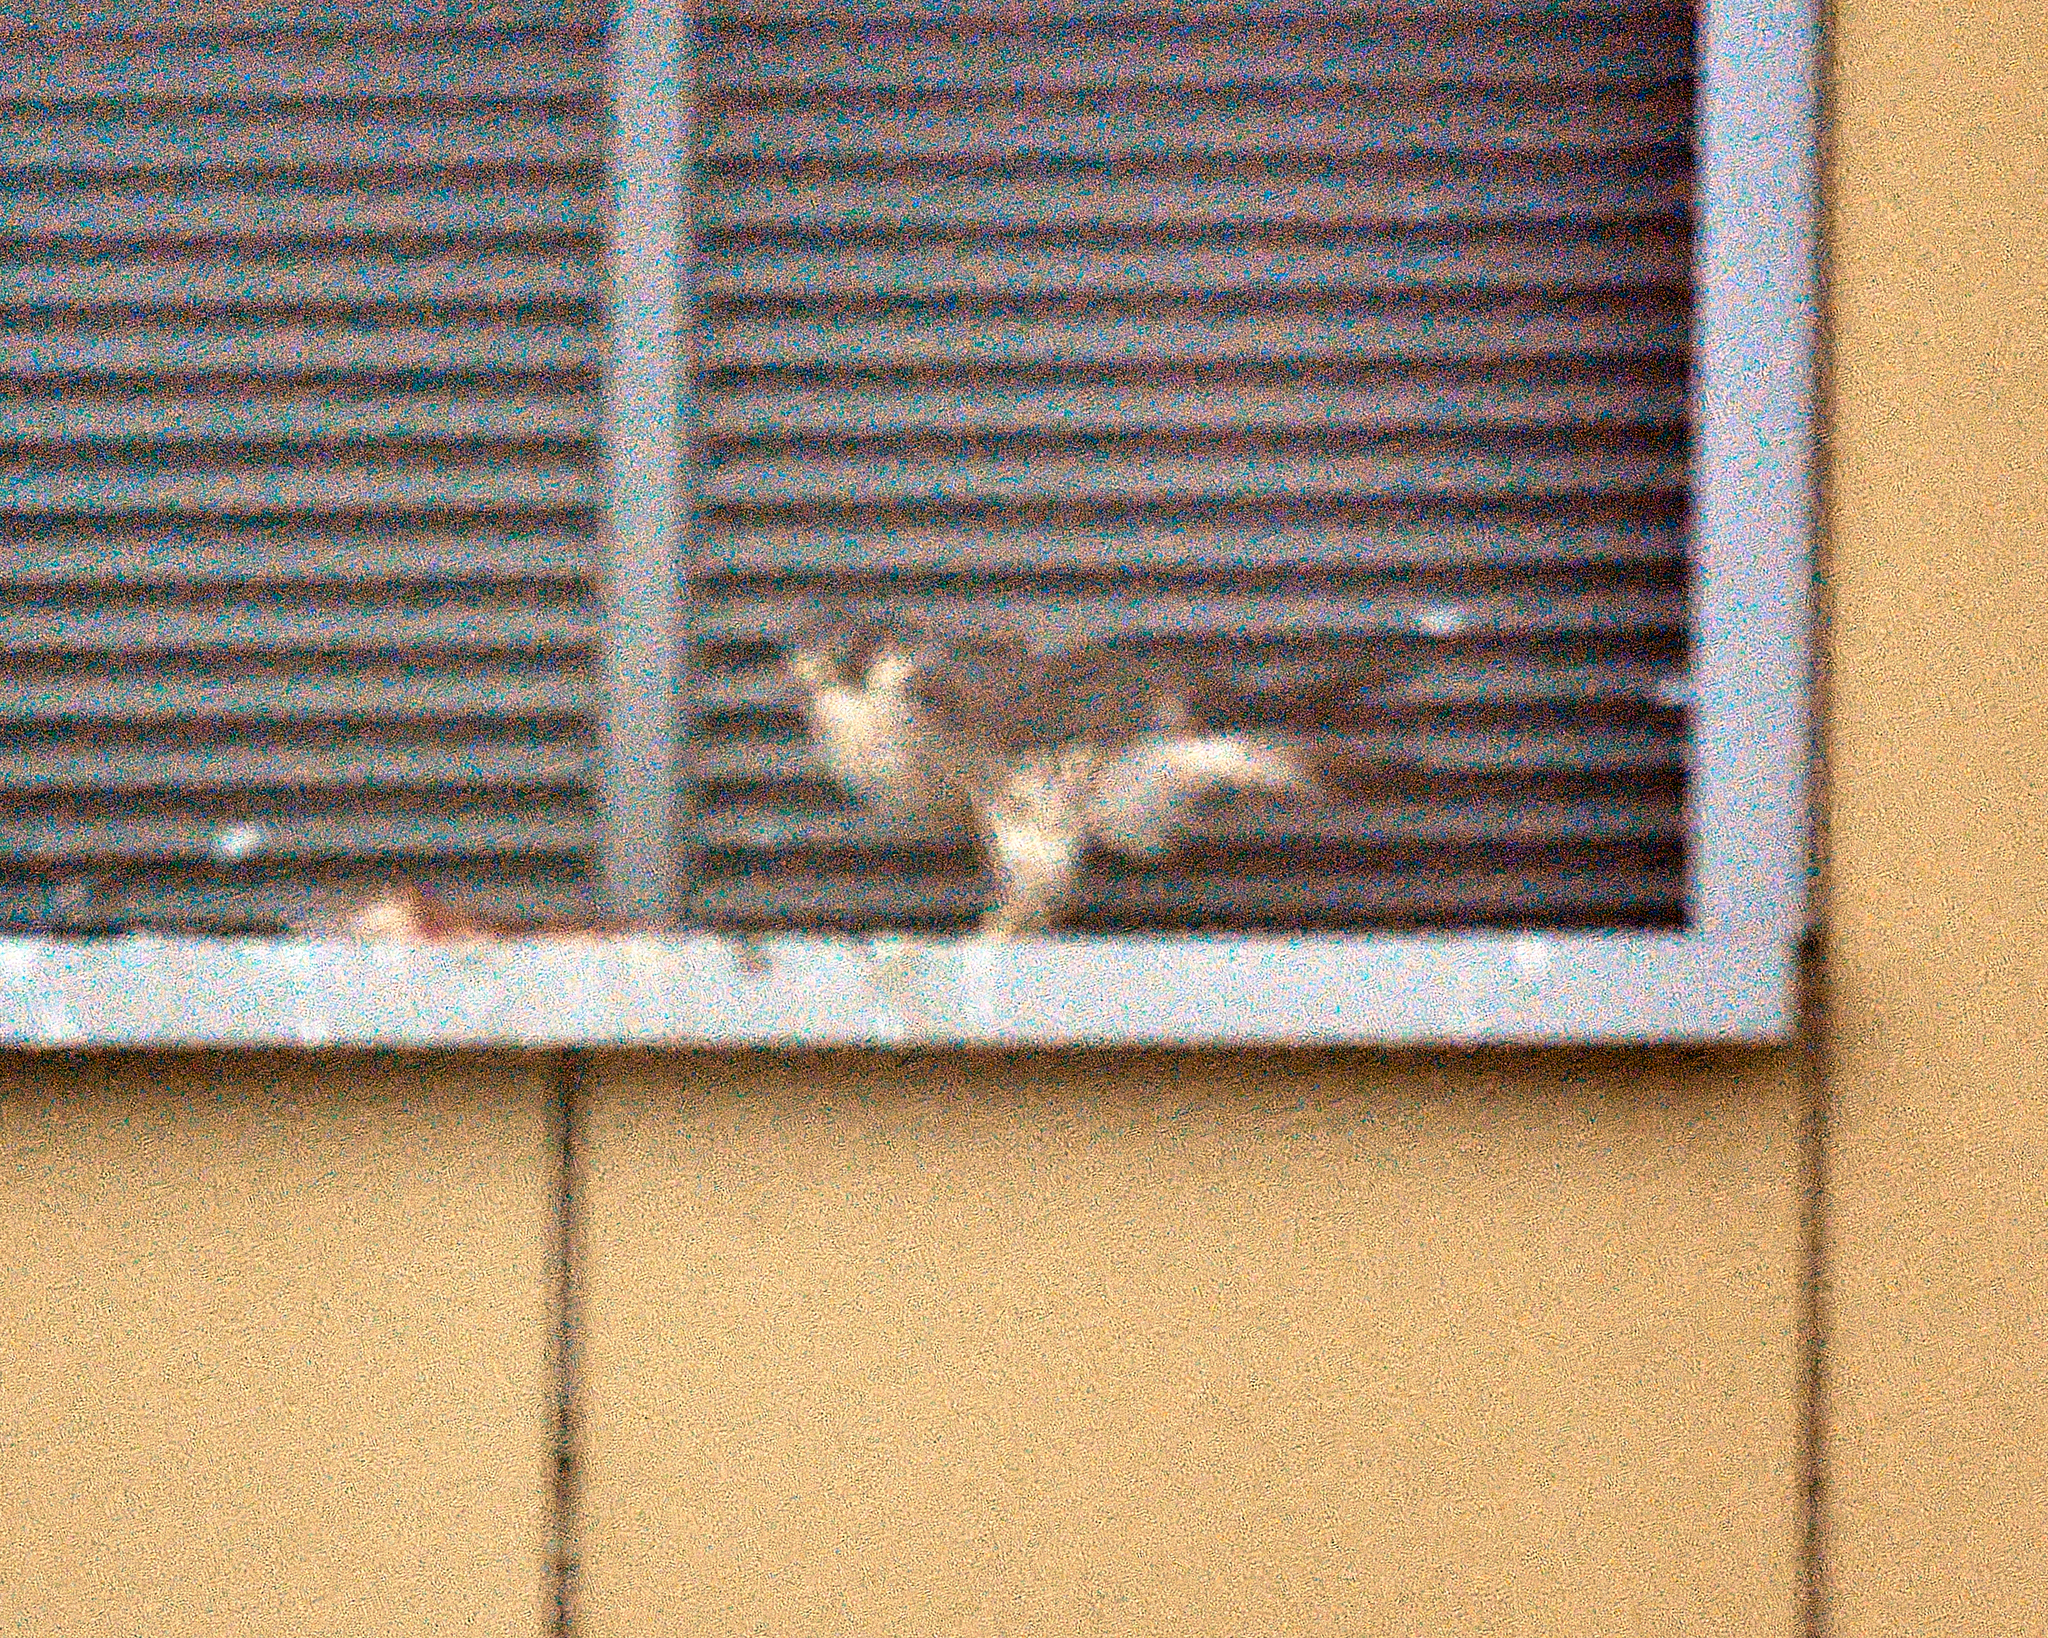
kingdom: Animalia
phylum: Chordata
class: Aves
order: Falconiformes
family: Falconidae
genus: Falco
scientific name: Falco peregrinus
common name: Peregrine falcon
